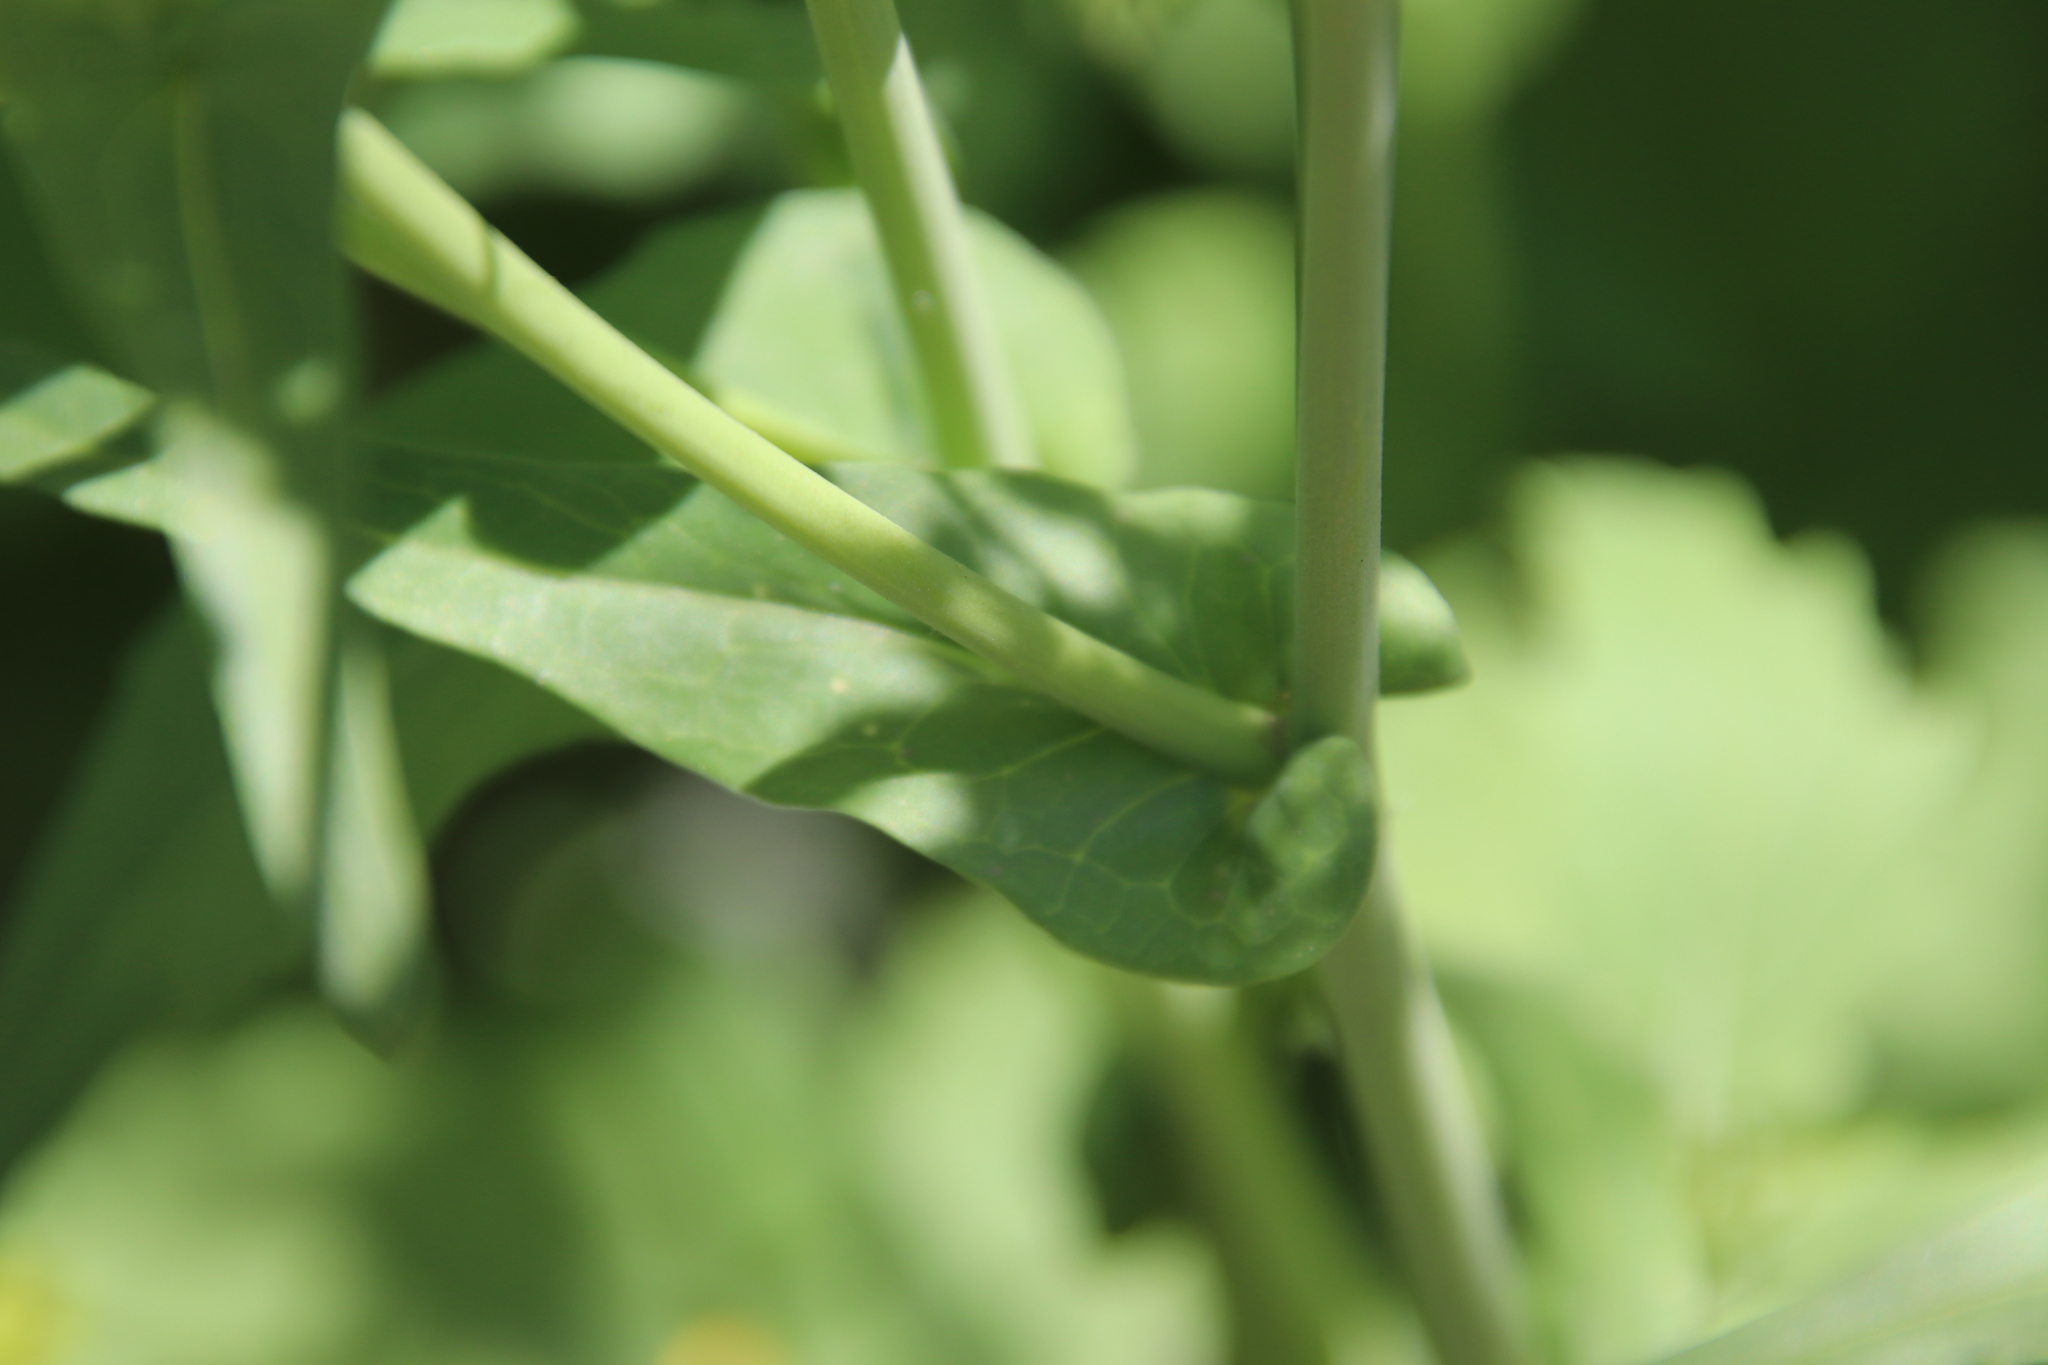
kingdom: Plantae
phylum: Tracheophyta
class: Magnoliopsida
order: Brassicales
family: Brassicaceae
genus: Brassica
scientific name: Brassica rapa
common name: Field mustard
